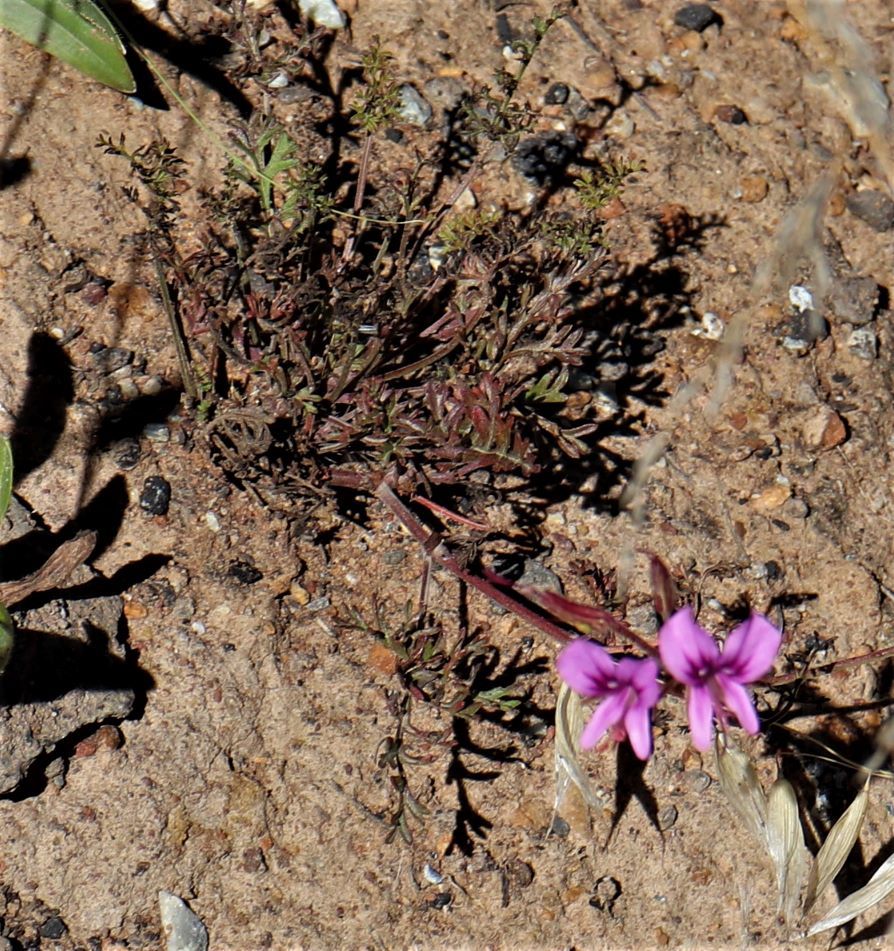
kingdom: Plantae
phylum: Tracheophyta
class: Magnoliopsida
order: Geraniales
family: Geraniaceae
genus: Pelargonium
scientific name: Pelargonium multicaule
